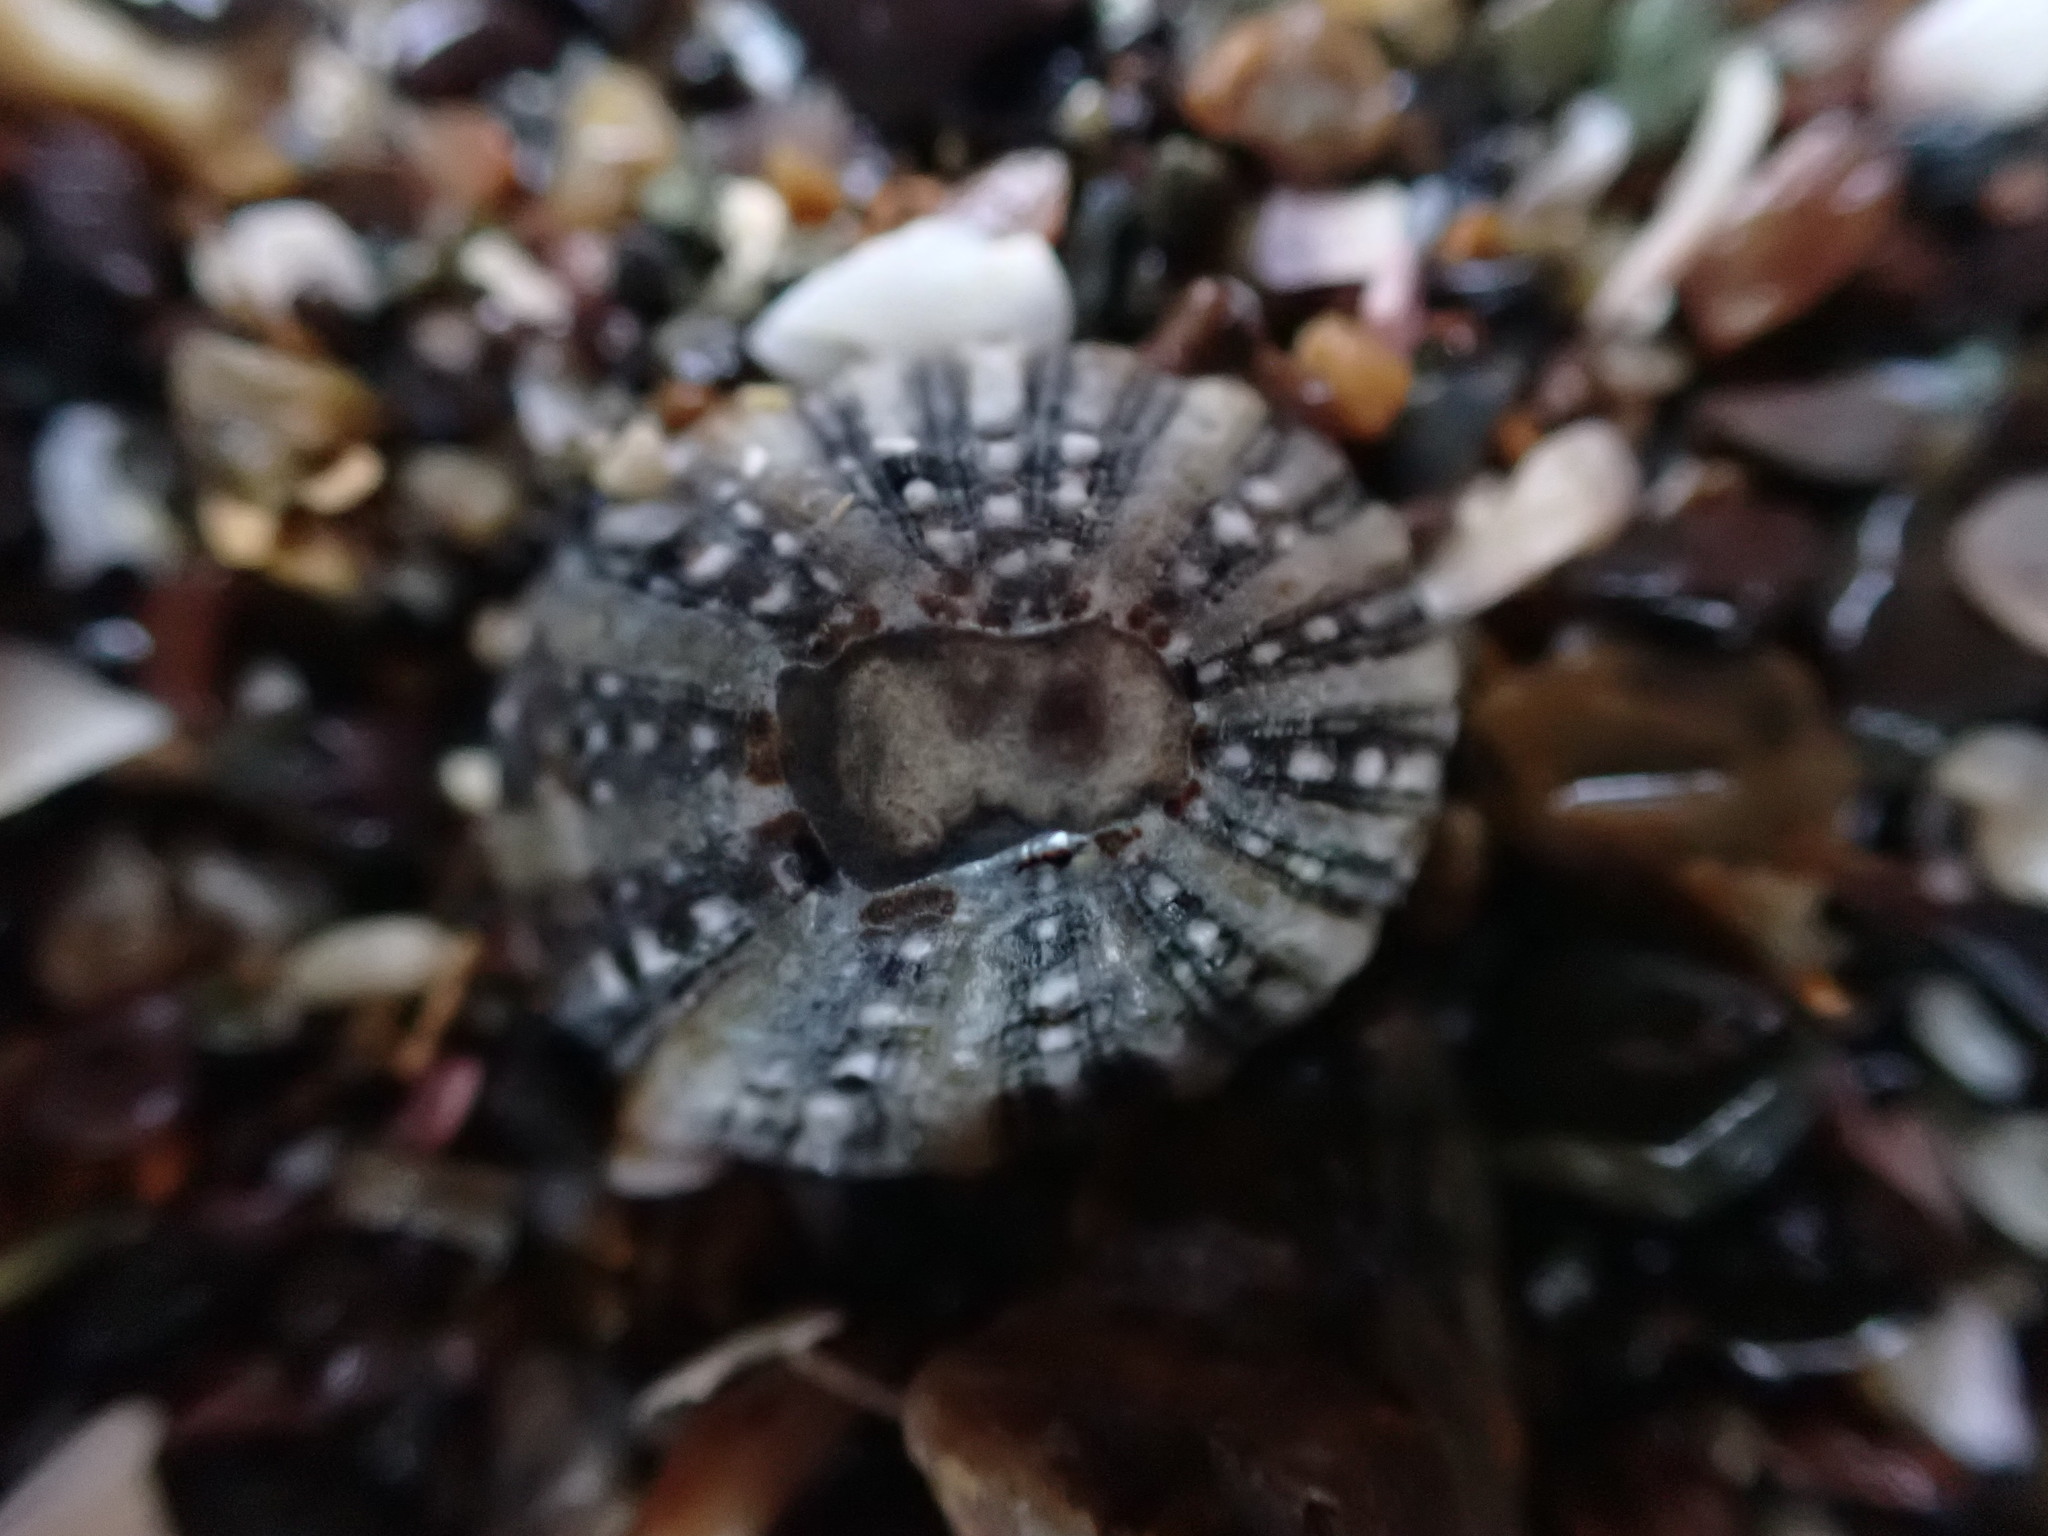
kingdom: Animalia
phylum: Mollusca
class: Gastropoda
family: Nacellidae
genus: Cellana
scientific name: Cellana ornata
